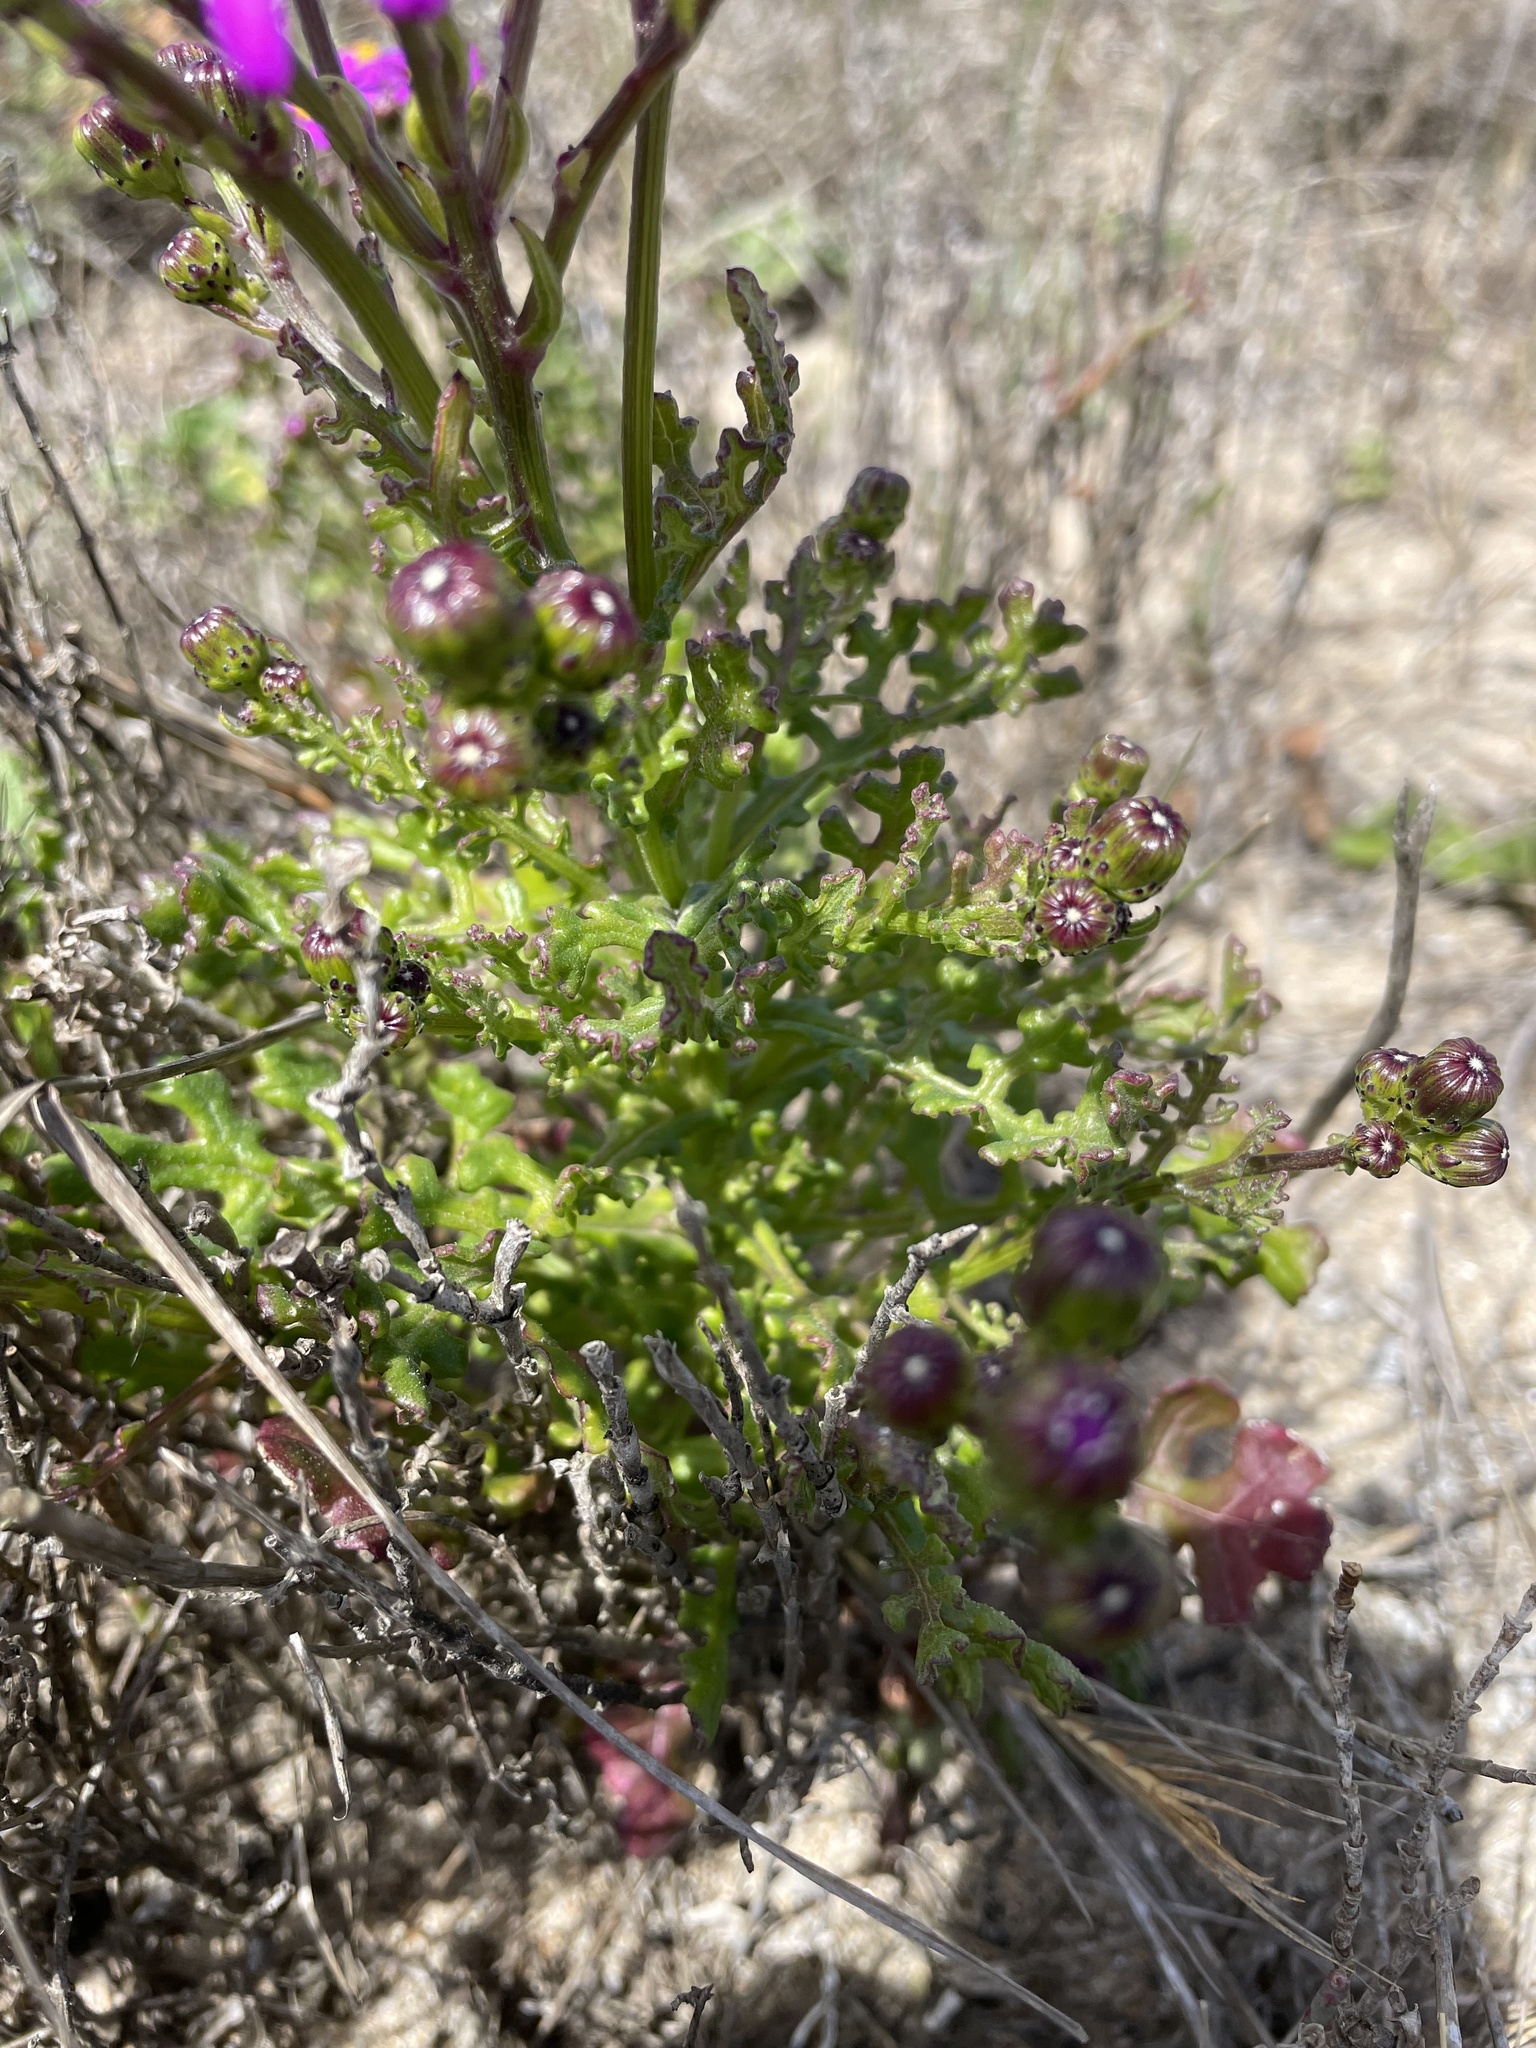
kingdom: Plantae
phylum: Tracheophyta
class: Magnoliopsida
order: Asterales
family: Asteraceae
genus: Senecio
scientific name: Senecio elegans
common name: Purple groundsel
